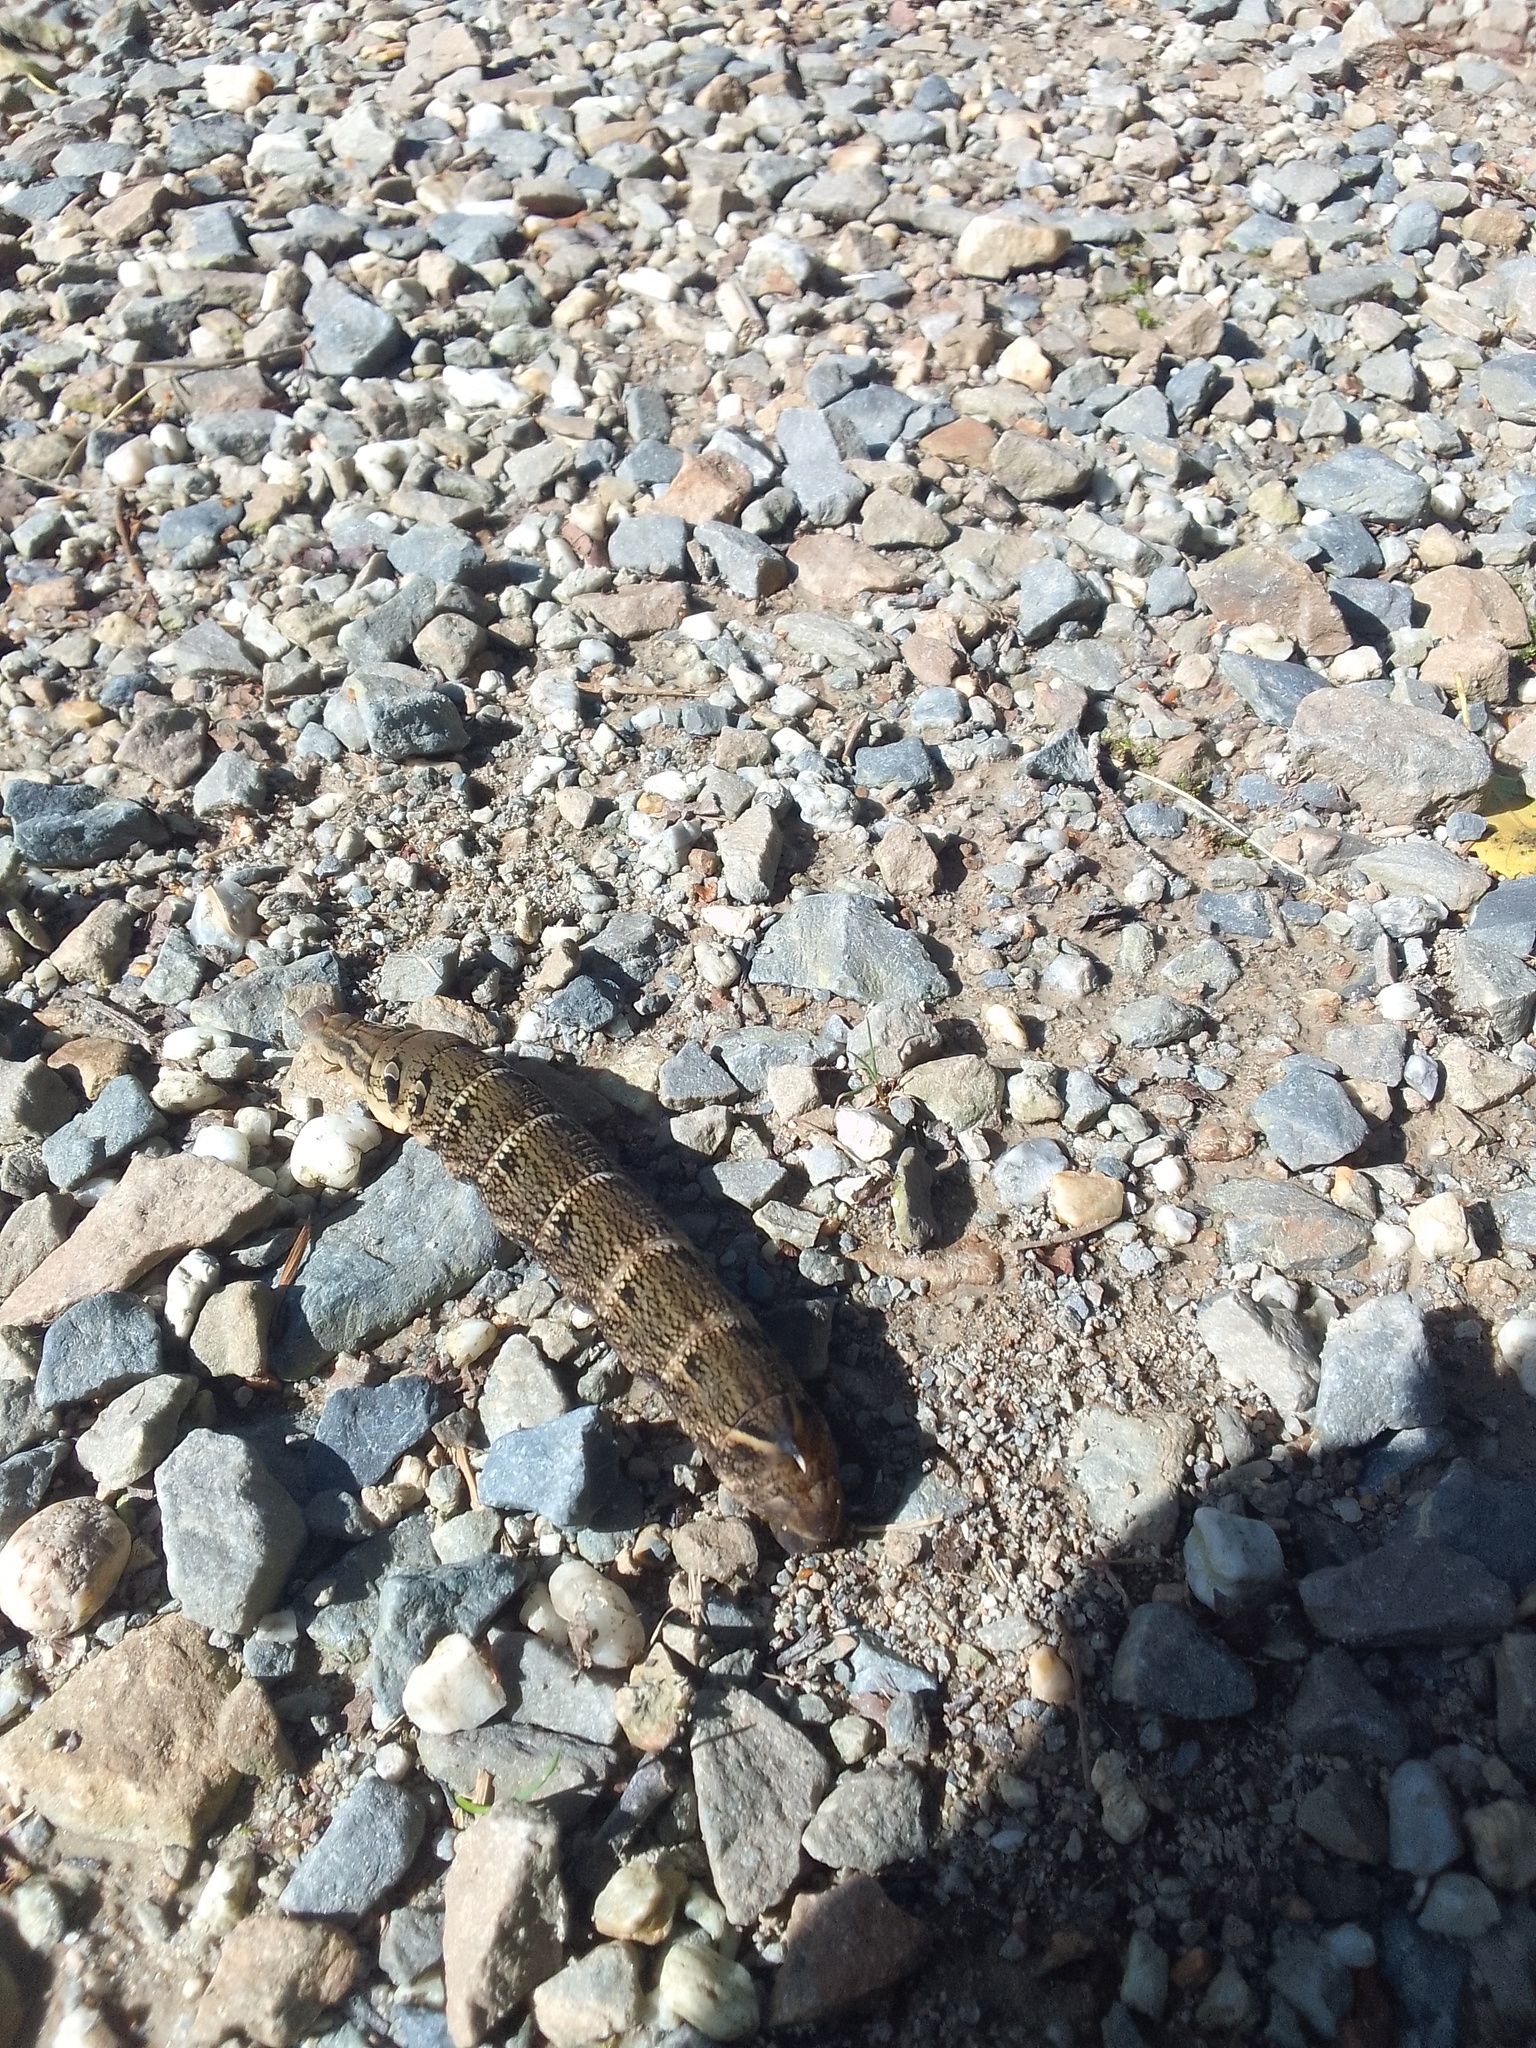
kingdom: Animalia
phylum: Arthropoda
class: Insecta
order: Lepidoptera
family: Sphingidae
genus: Deilephila
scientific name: Deilephila elpenor
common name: Elephant hawk-moth
